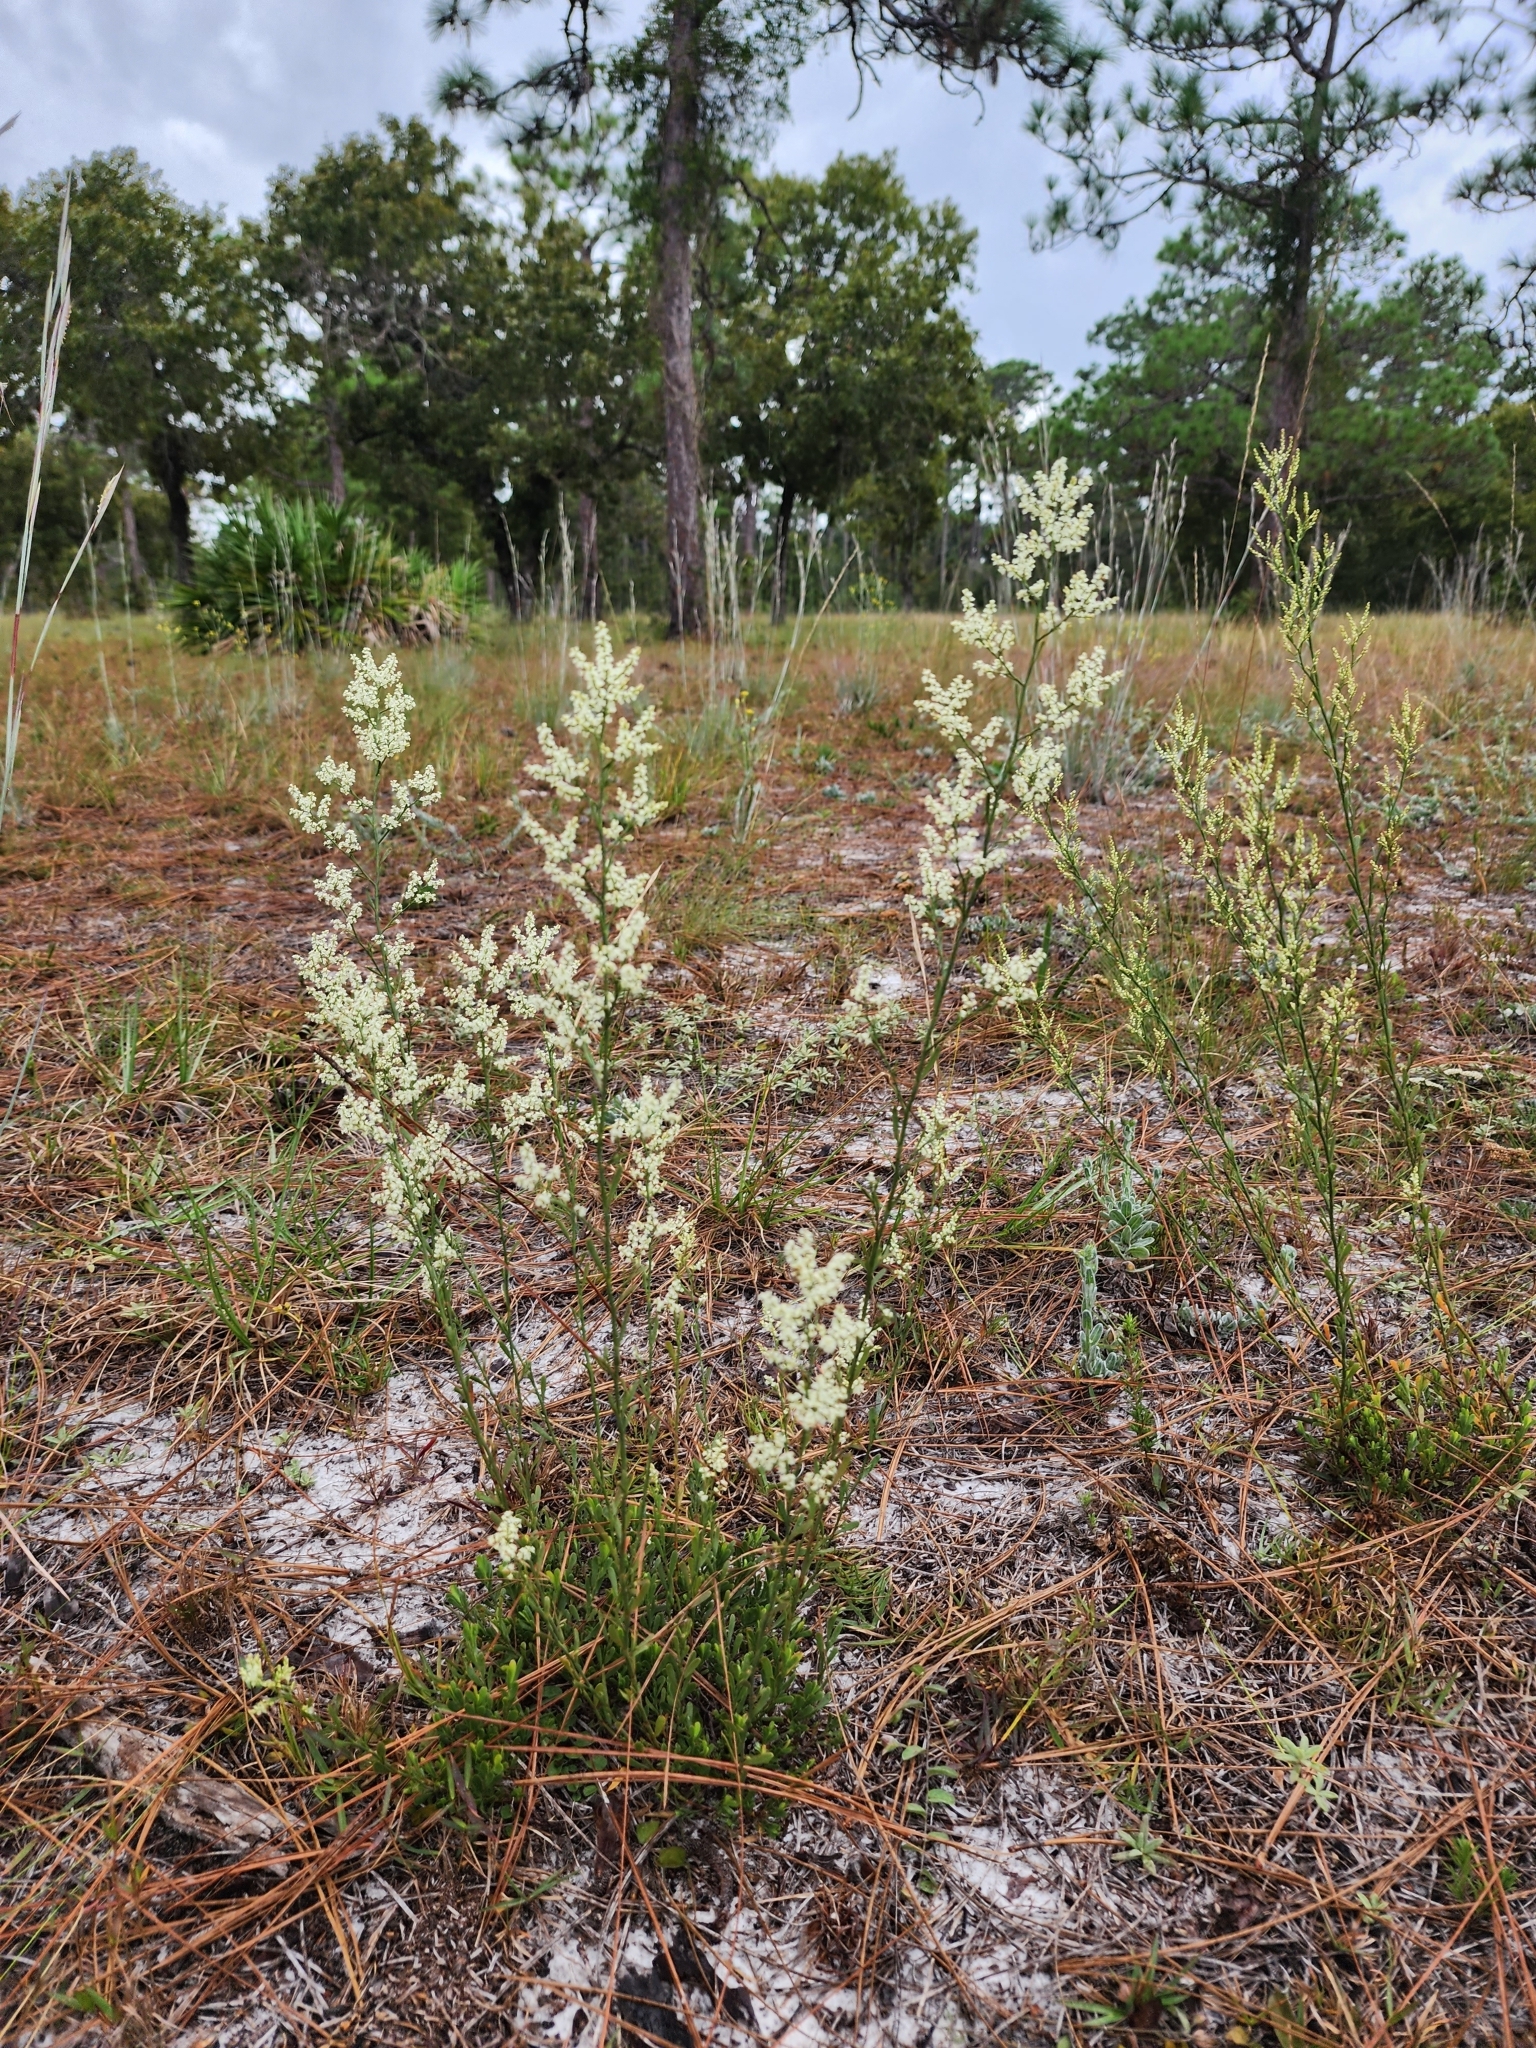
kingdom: Plantae
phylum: Tracheophyta
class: Magnoliopsida
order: Caryophyllales
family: Polygonaceae
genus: Polygonella
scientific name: Polygonella polygama
